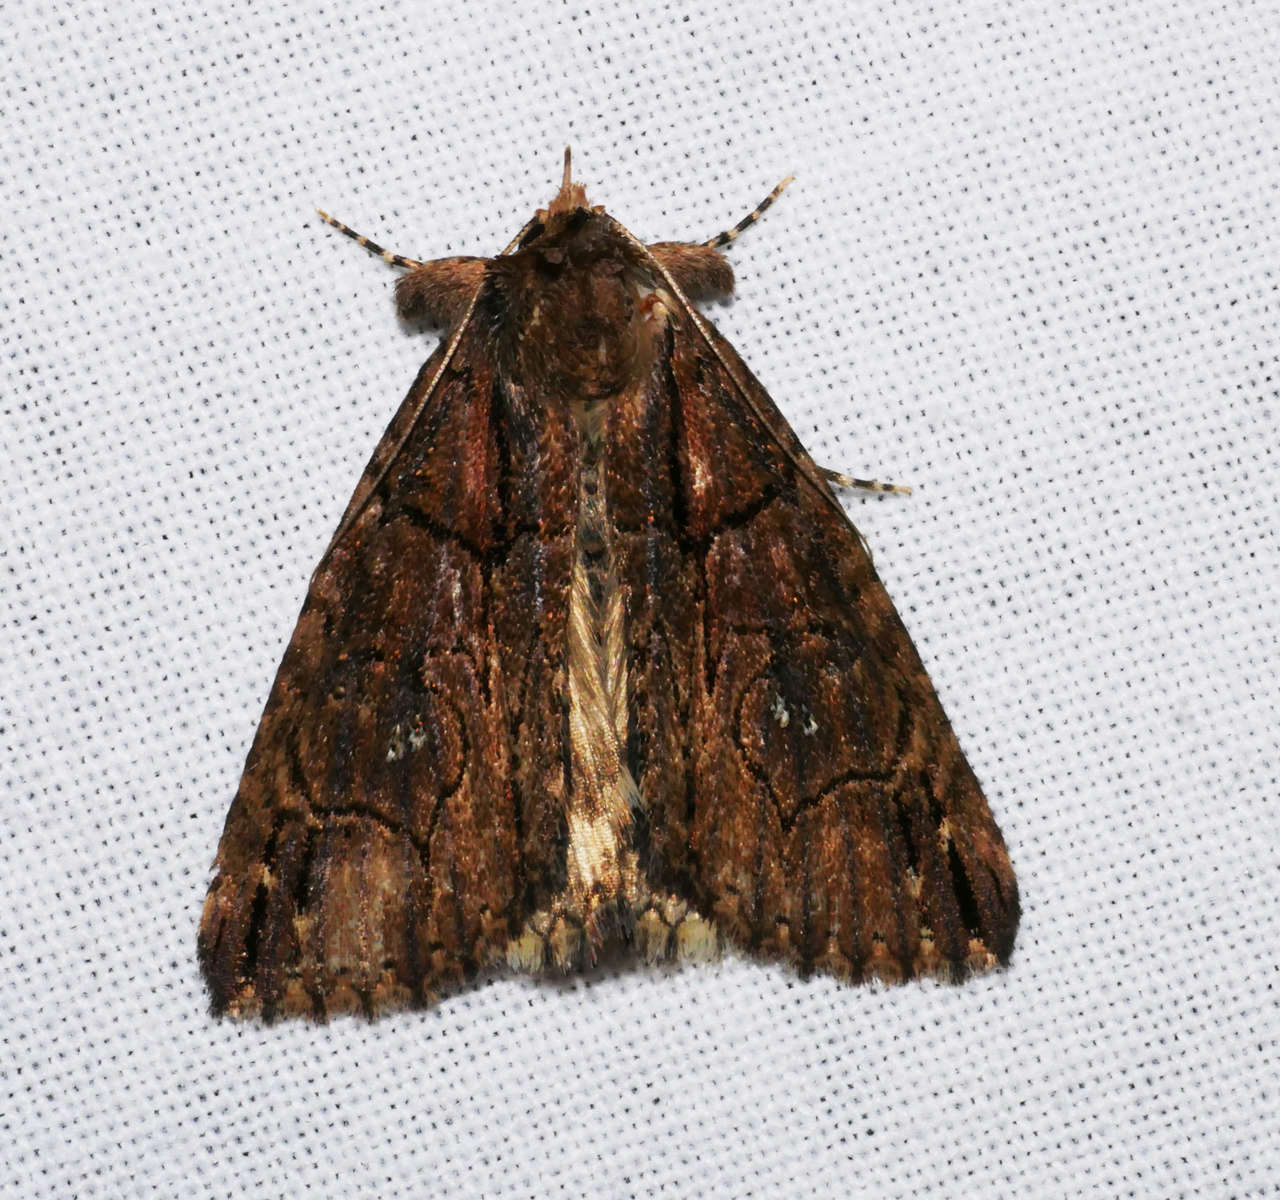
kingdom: Animalia
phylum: Arthropoda
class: Insecta
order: Lepidoptera
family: Erebidae
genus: Crioa
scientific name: Crioa hades
